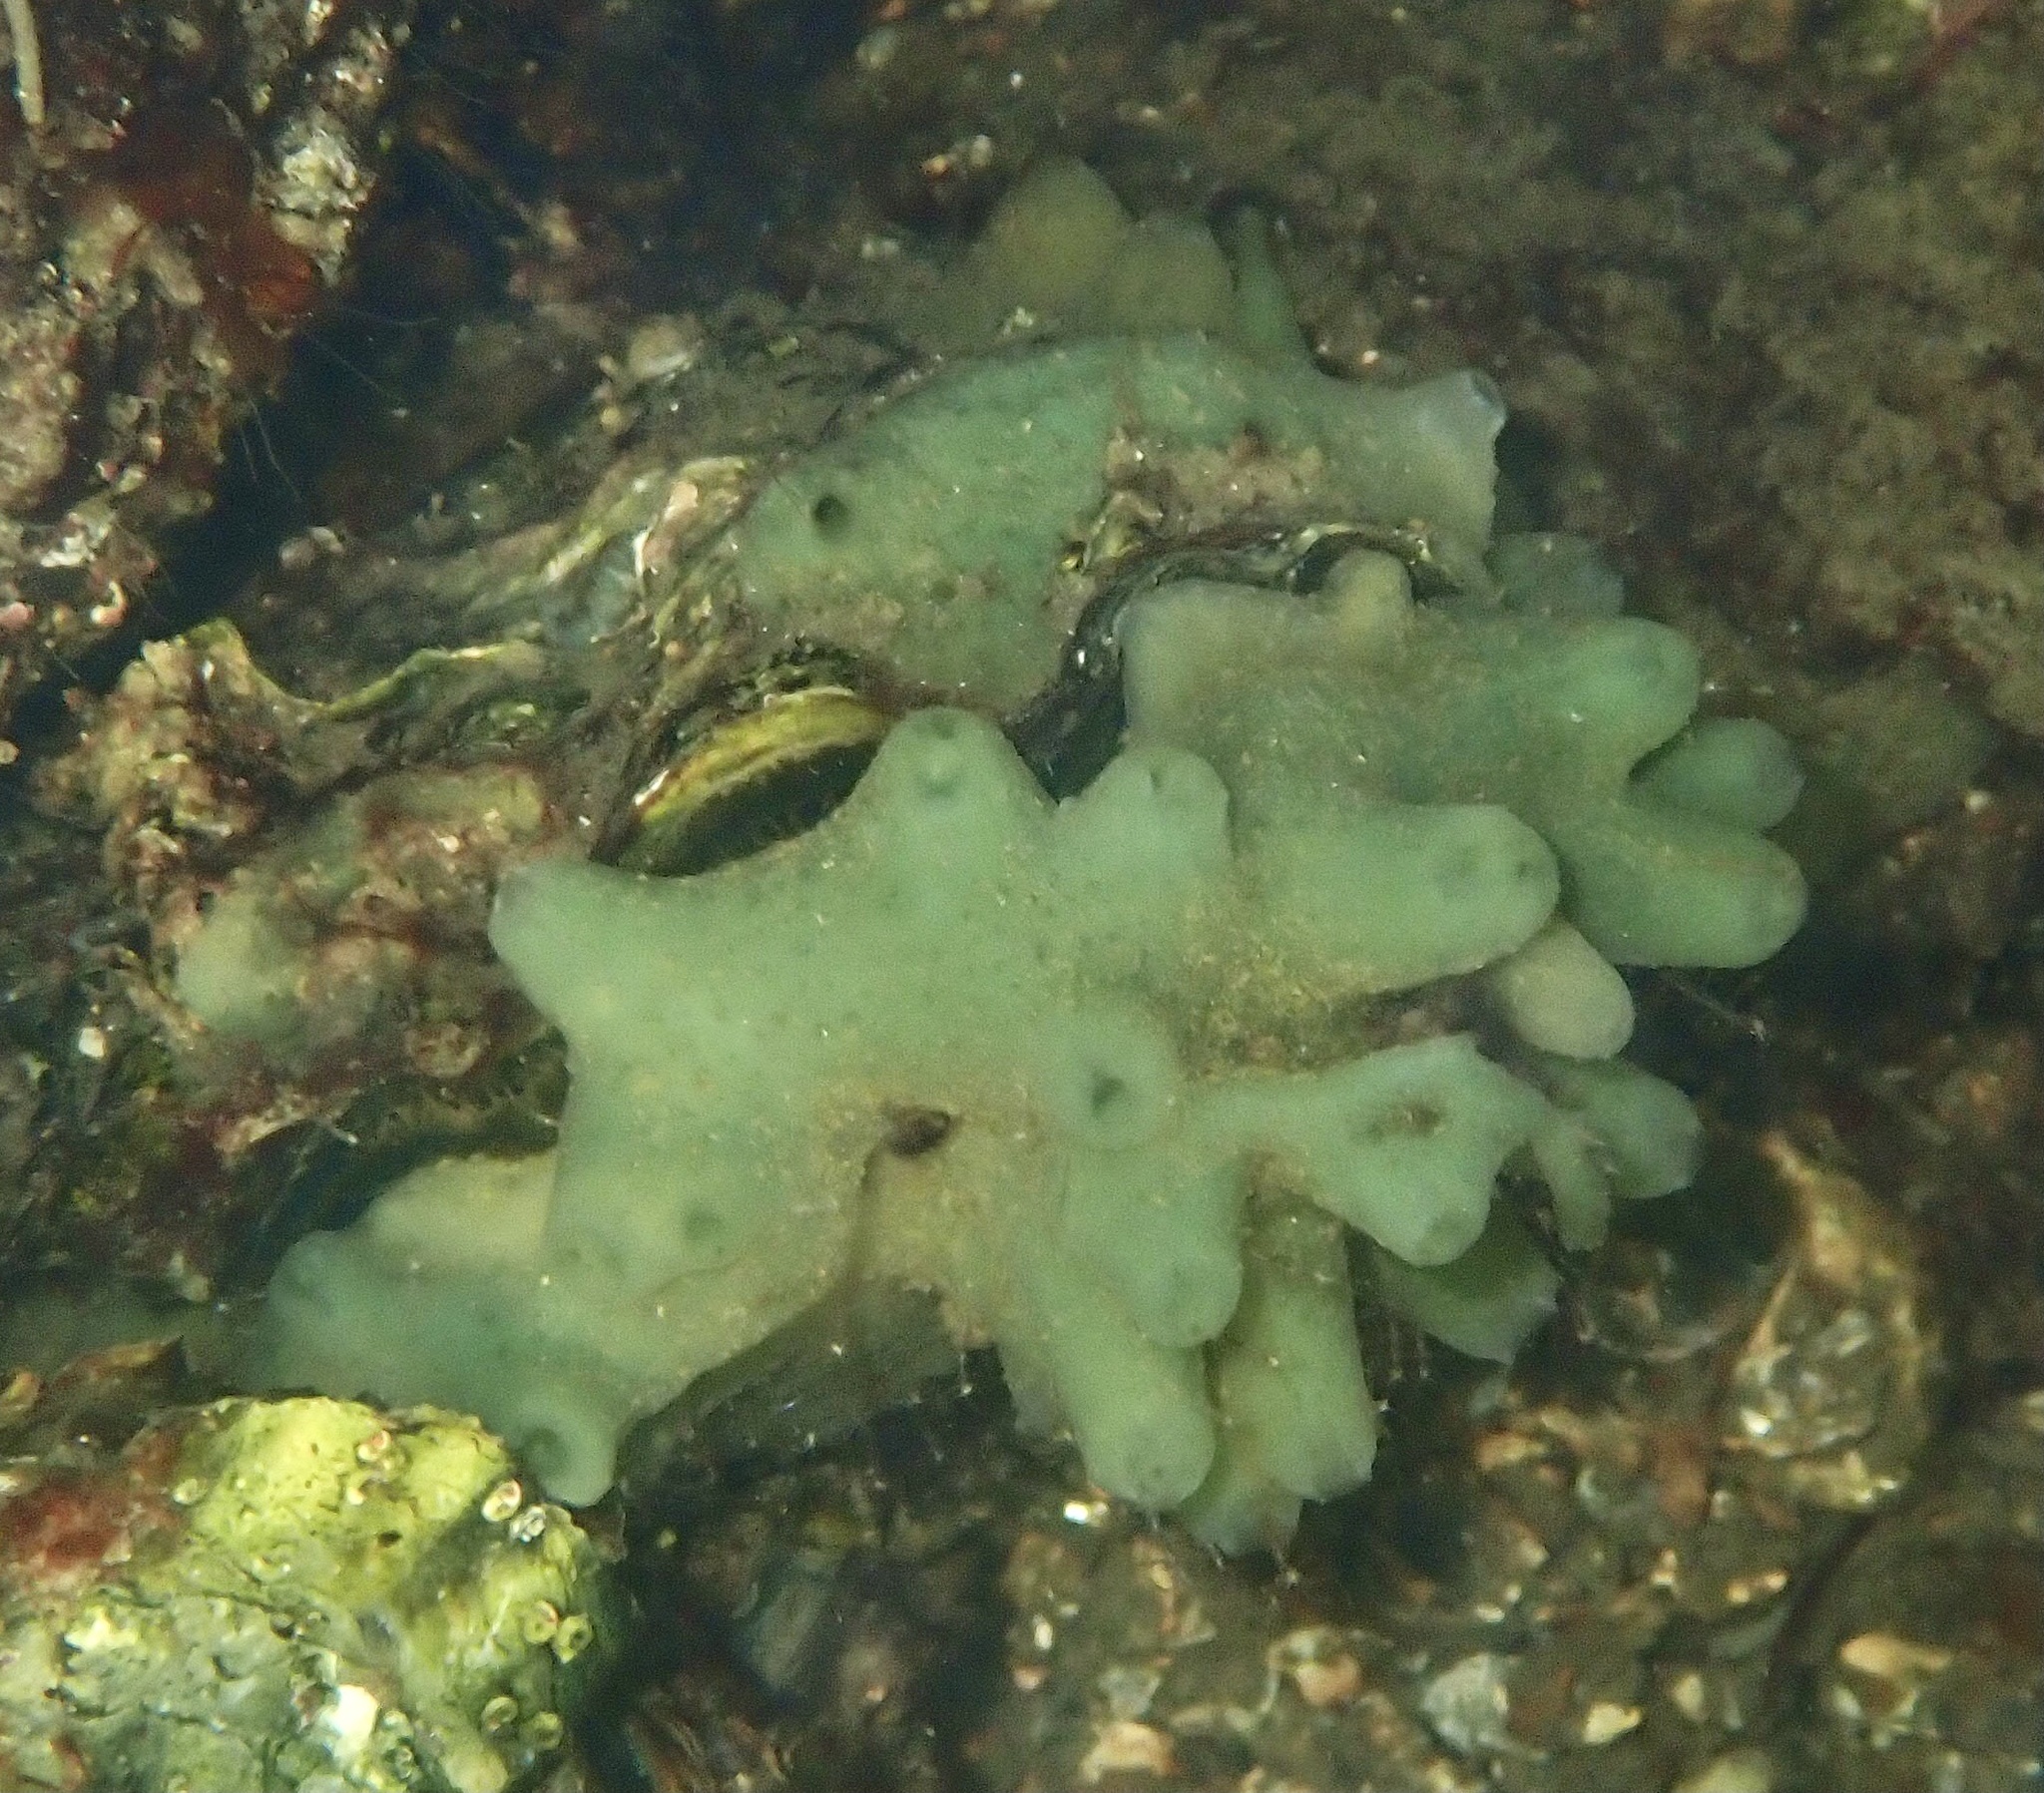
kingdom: Animalia
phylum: Porifera
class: Demospongiae
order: Suberitida
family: Halichondriidae
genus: Halichondria
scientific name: Halichondria panicea
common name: Breadcrumb sponge
